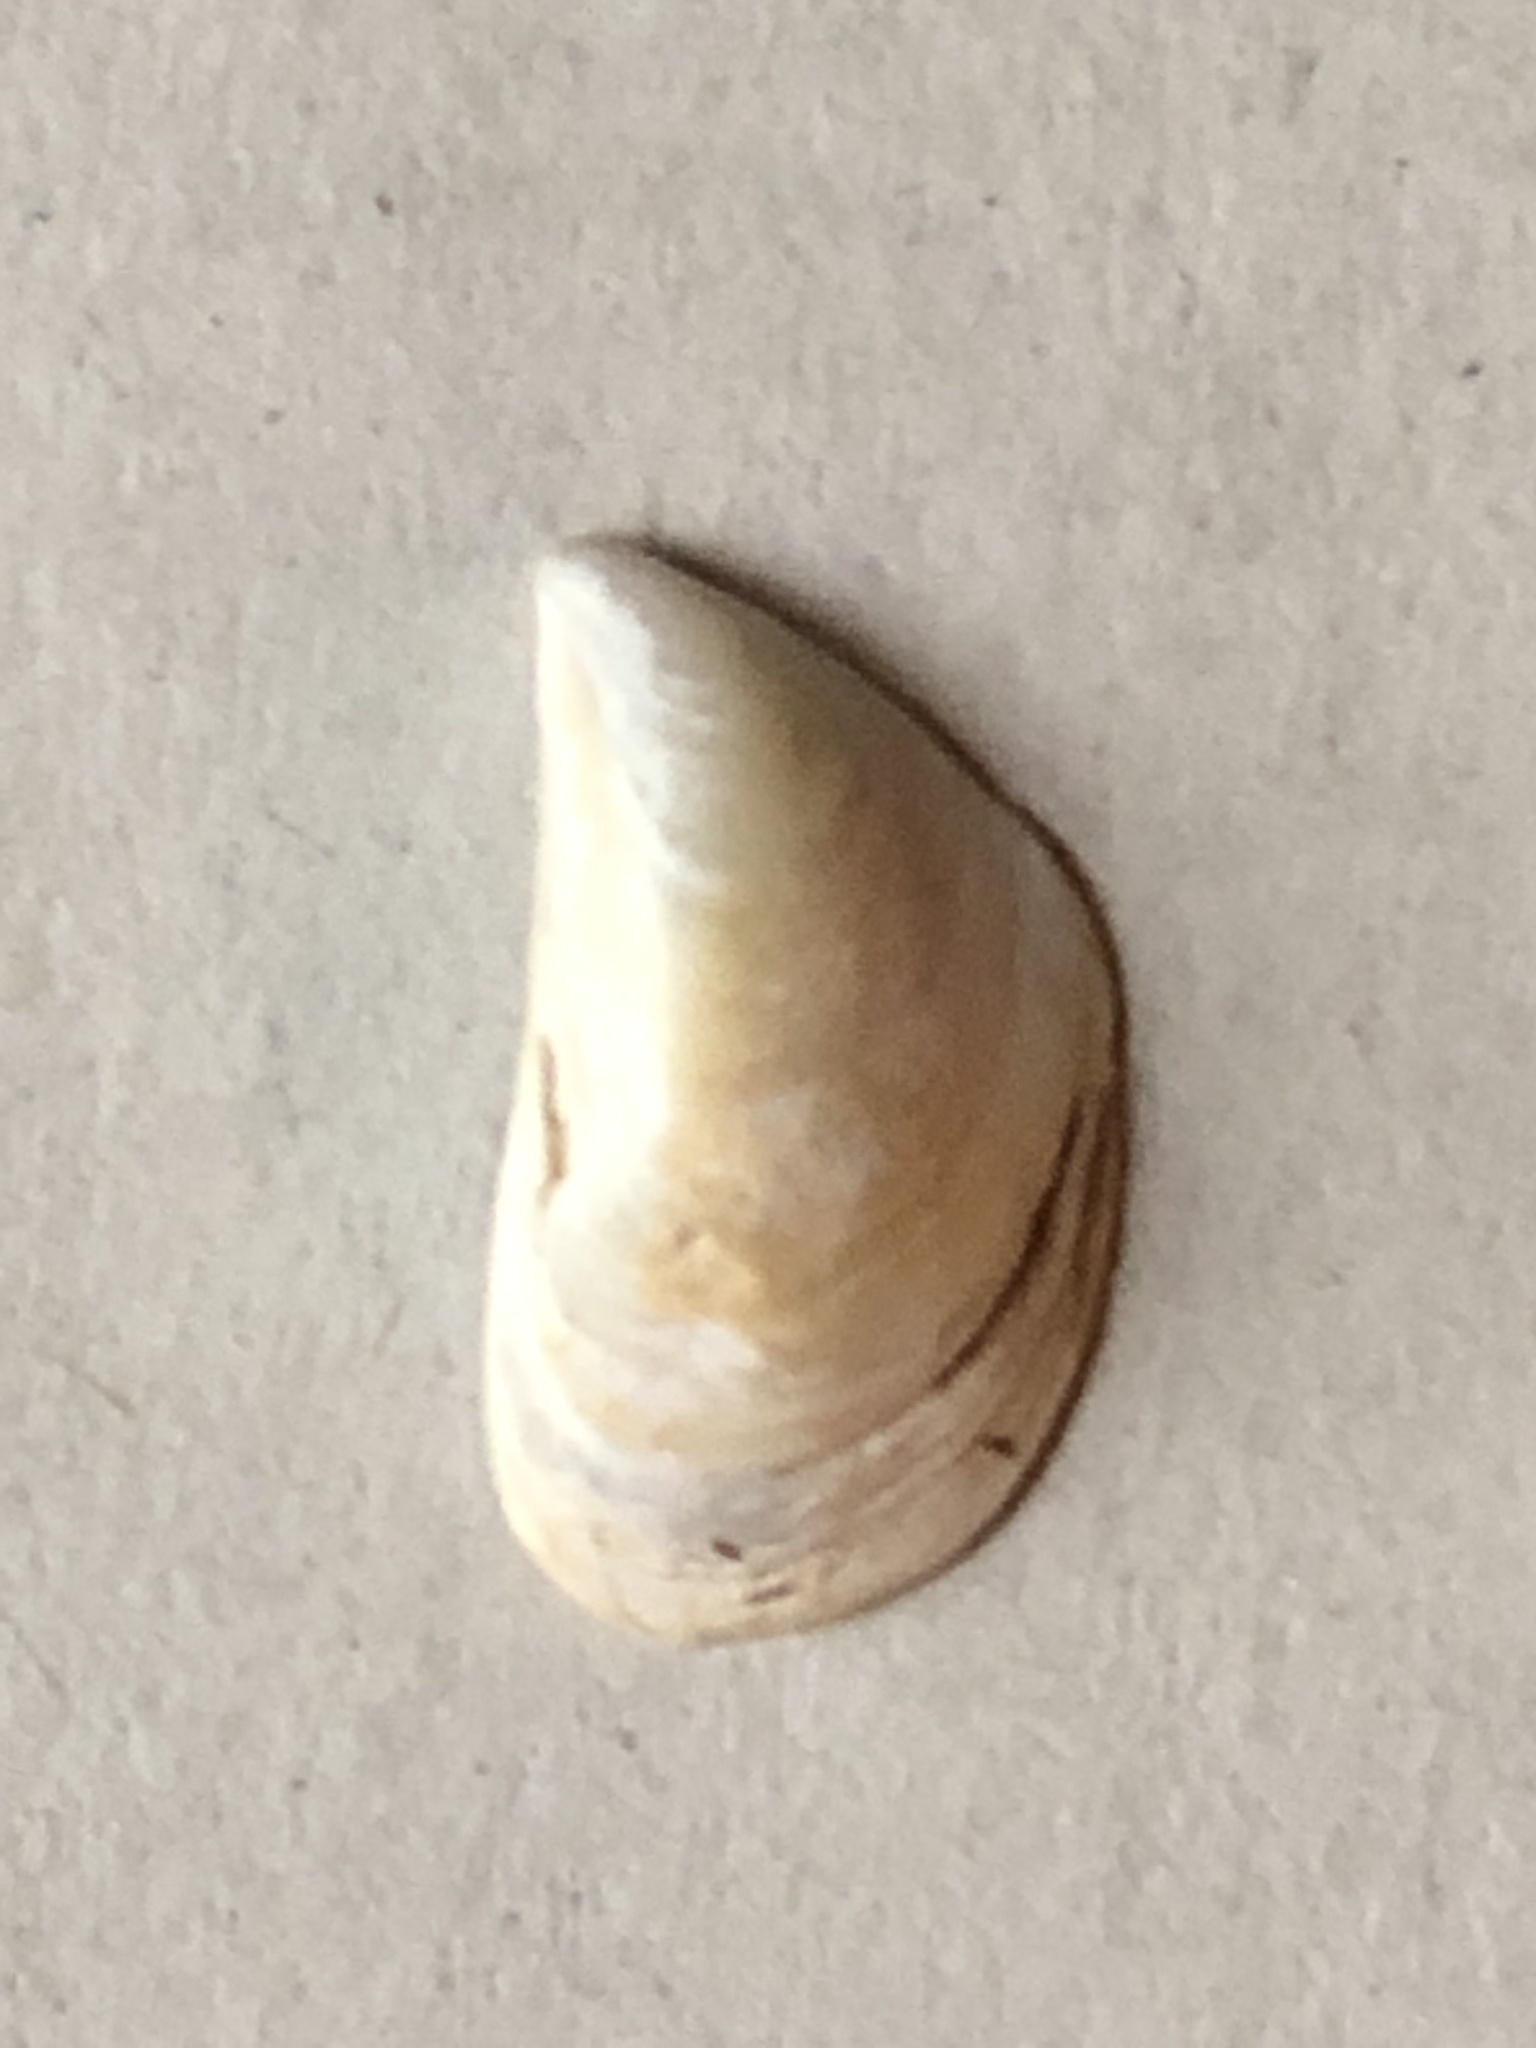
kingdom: Animalia
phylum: Mollusca
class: Bivalvia
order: Myida
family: Dreissenidae
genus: Dreissena
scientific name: Dreissena bugensis
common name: Quagga mussel
